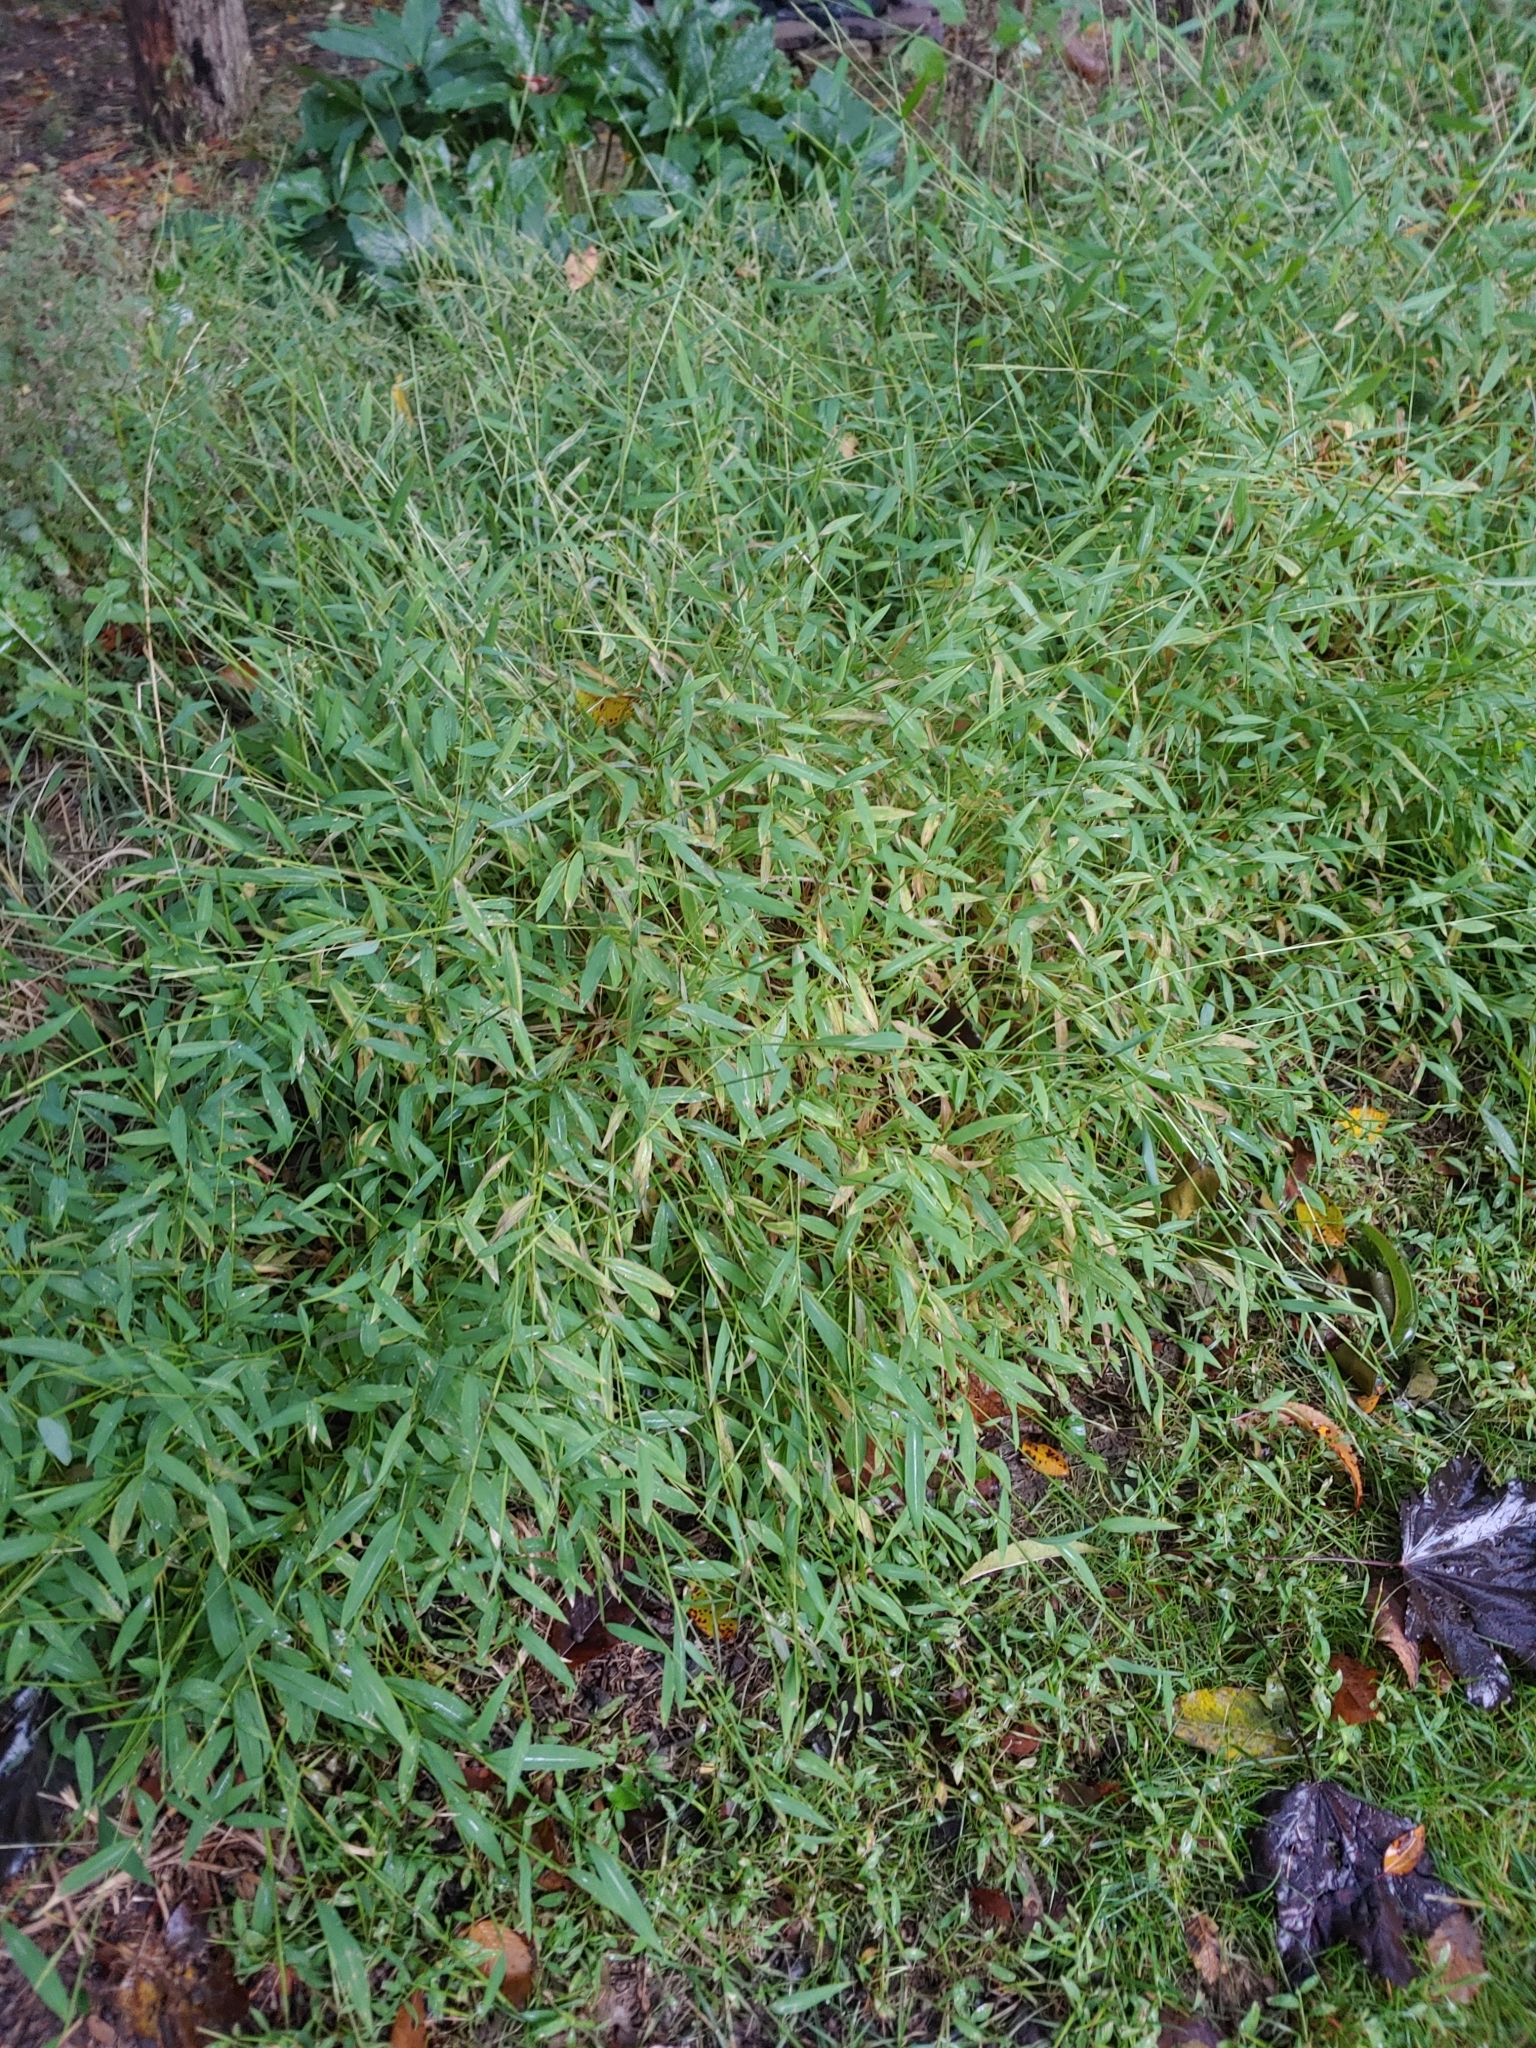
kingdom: Plantae
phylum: Tracheophyta
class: Liliopsida
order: Poales
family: Poaceae
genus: Microstegium
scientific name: Microstegium vimineum
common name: Japanese stiltgrass
